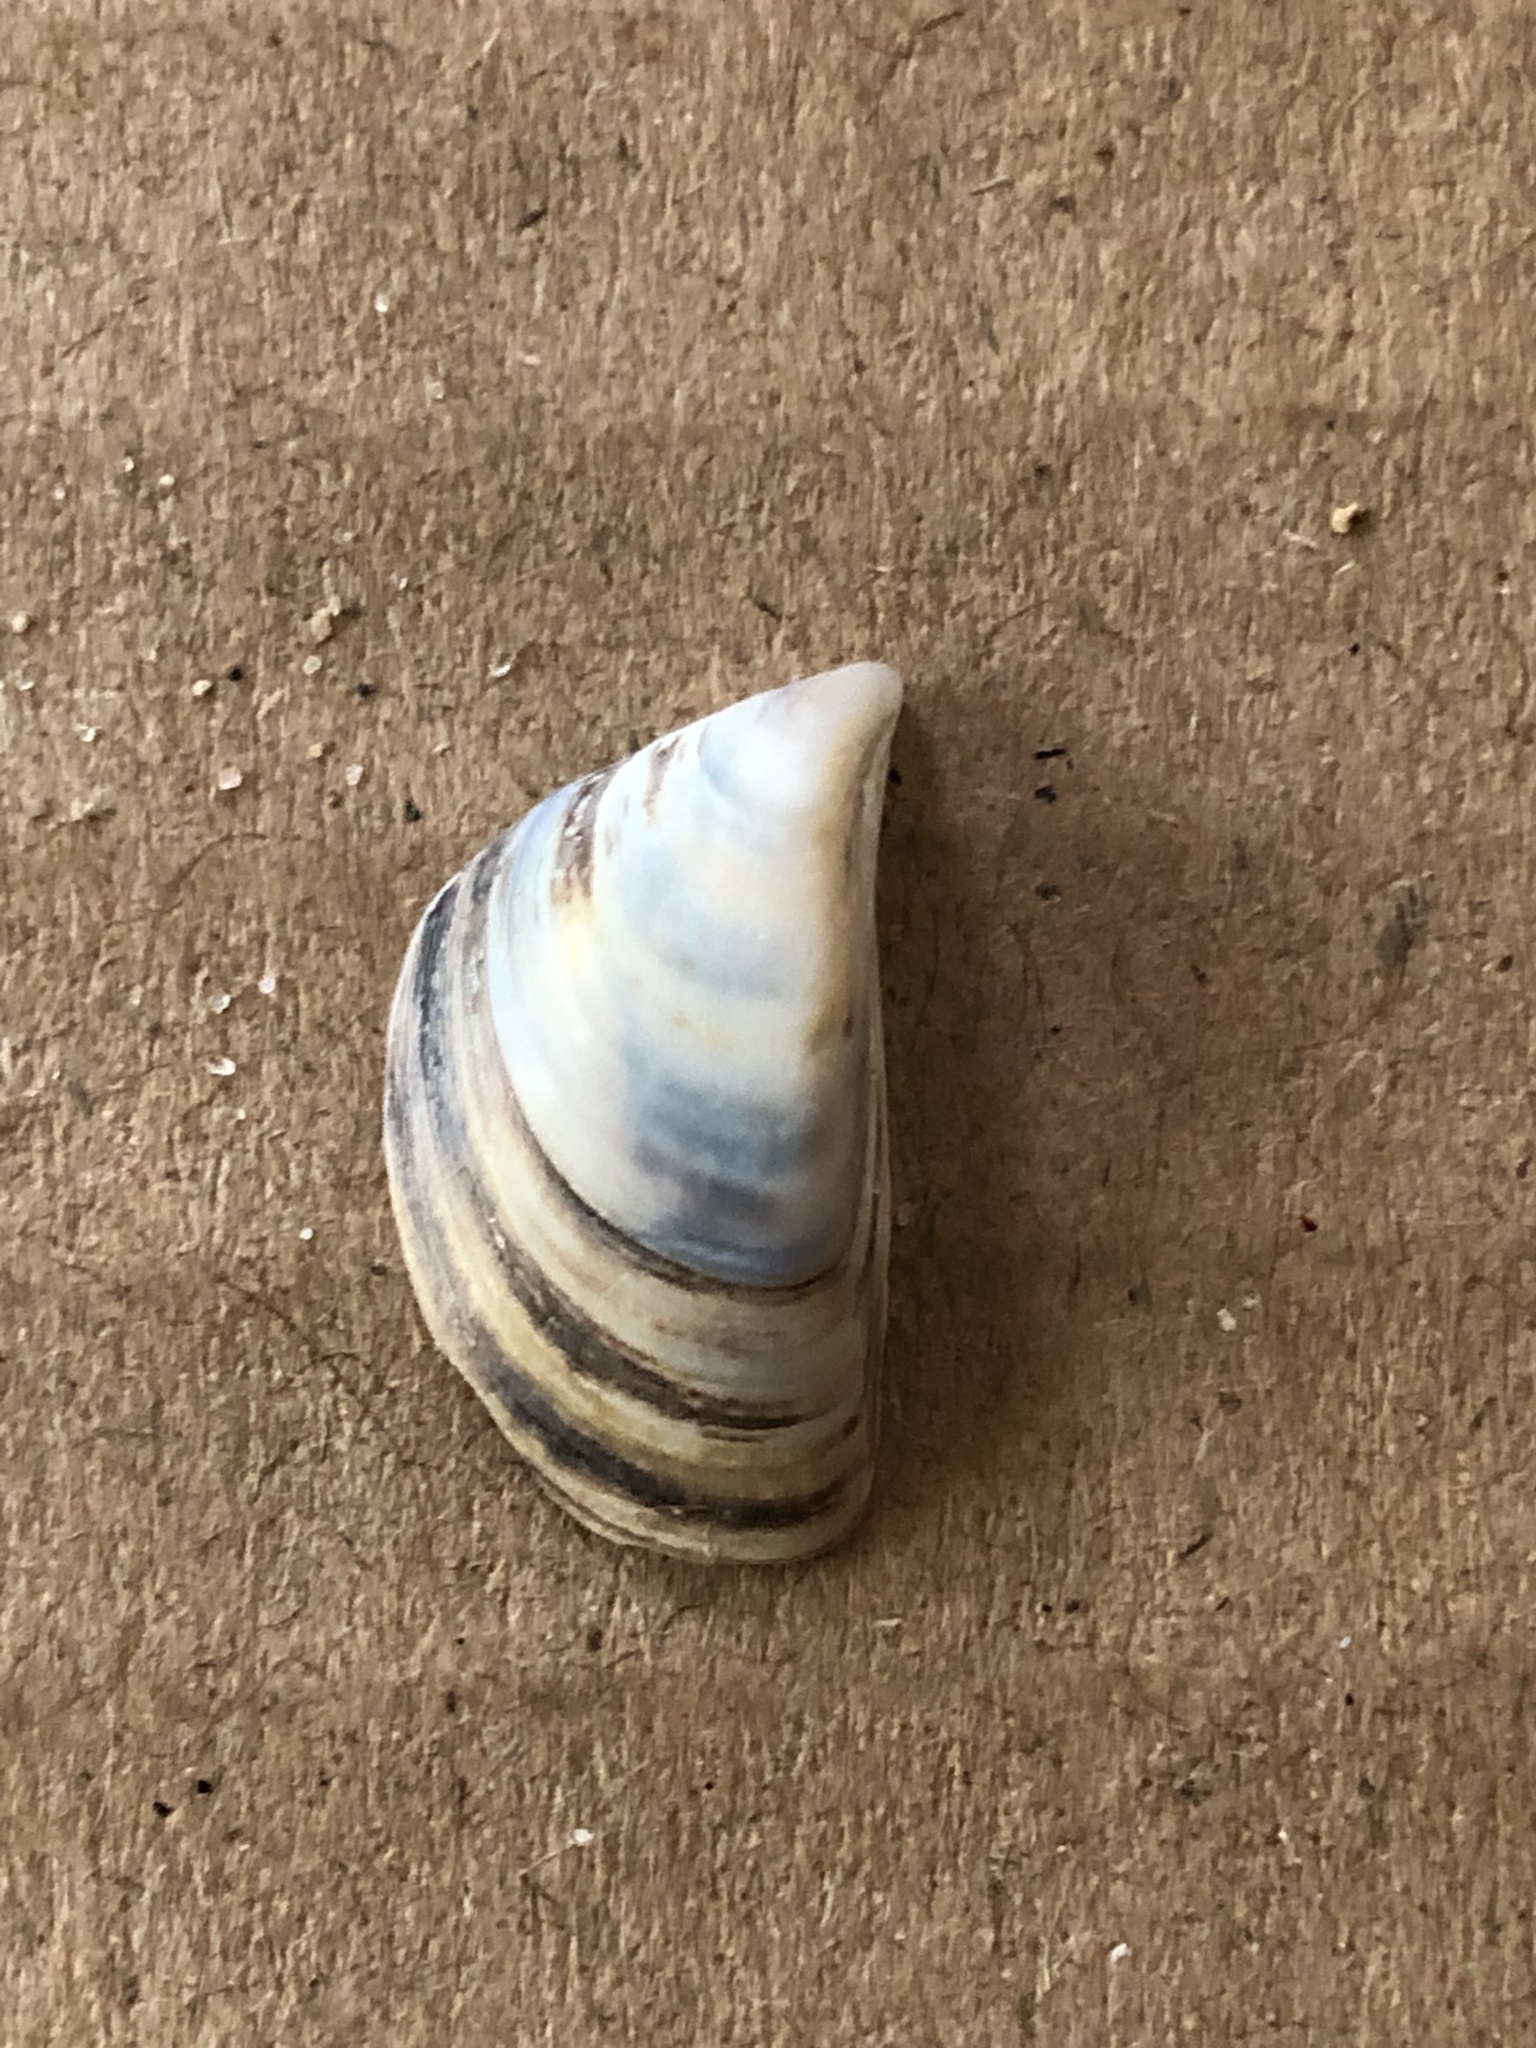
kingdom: Animalia
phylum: Mollusca
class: Bivalvia
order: Myida
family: Dreissenidae
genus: Dreissena
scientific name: Dreissena polymorpha
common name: Zebra mussel
